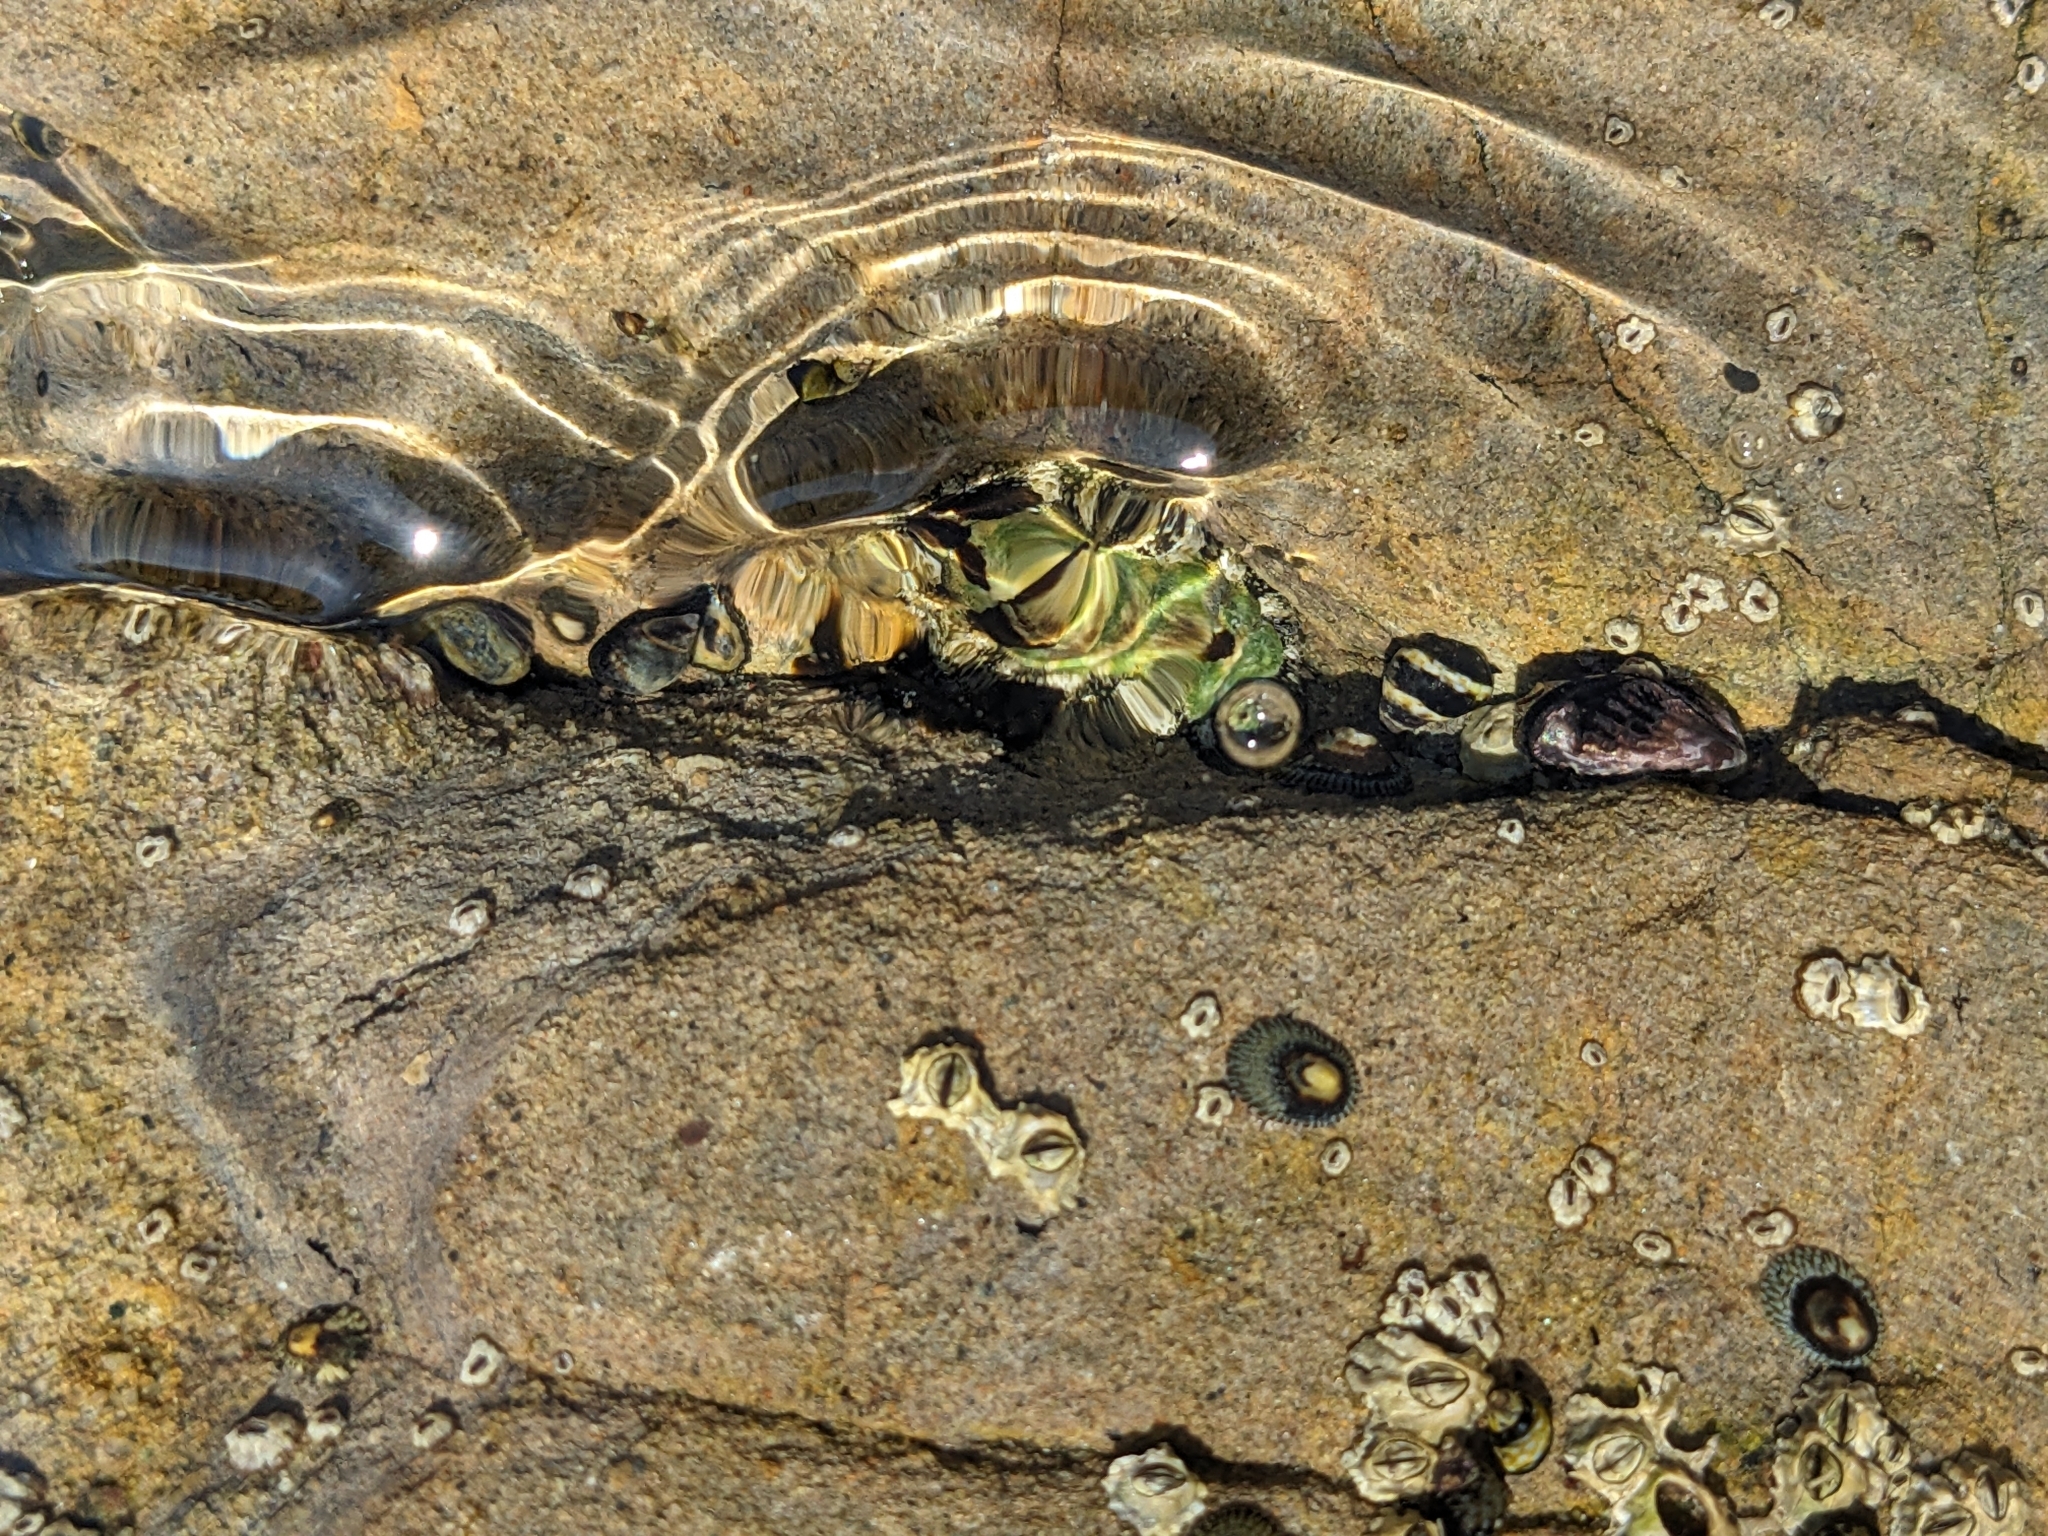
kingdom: Animalia
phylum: Mollusca
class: Polyplacophora
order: Chitonida
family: Tonicellidae
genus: Nuttallina
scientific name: Nuttallina californica
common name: California nuttall chiton
